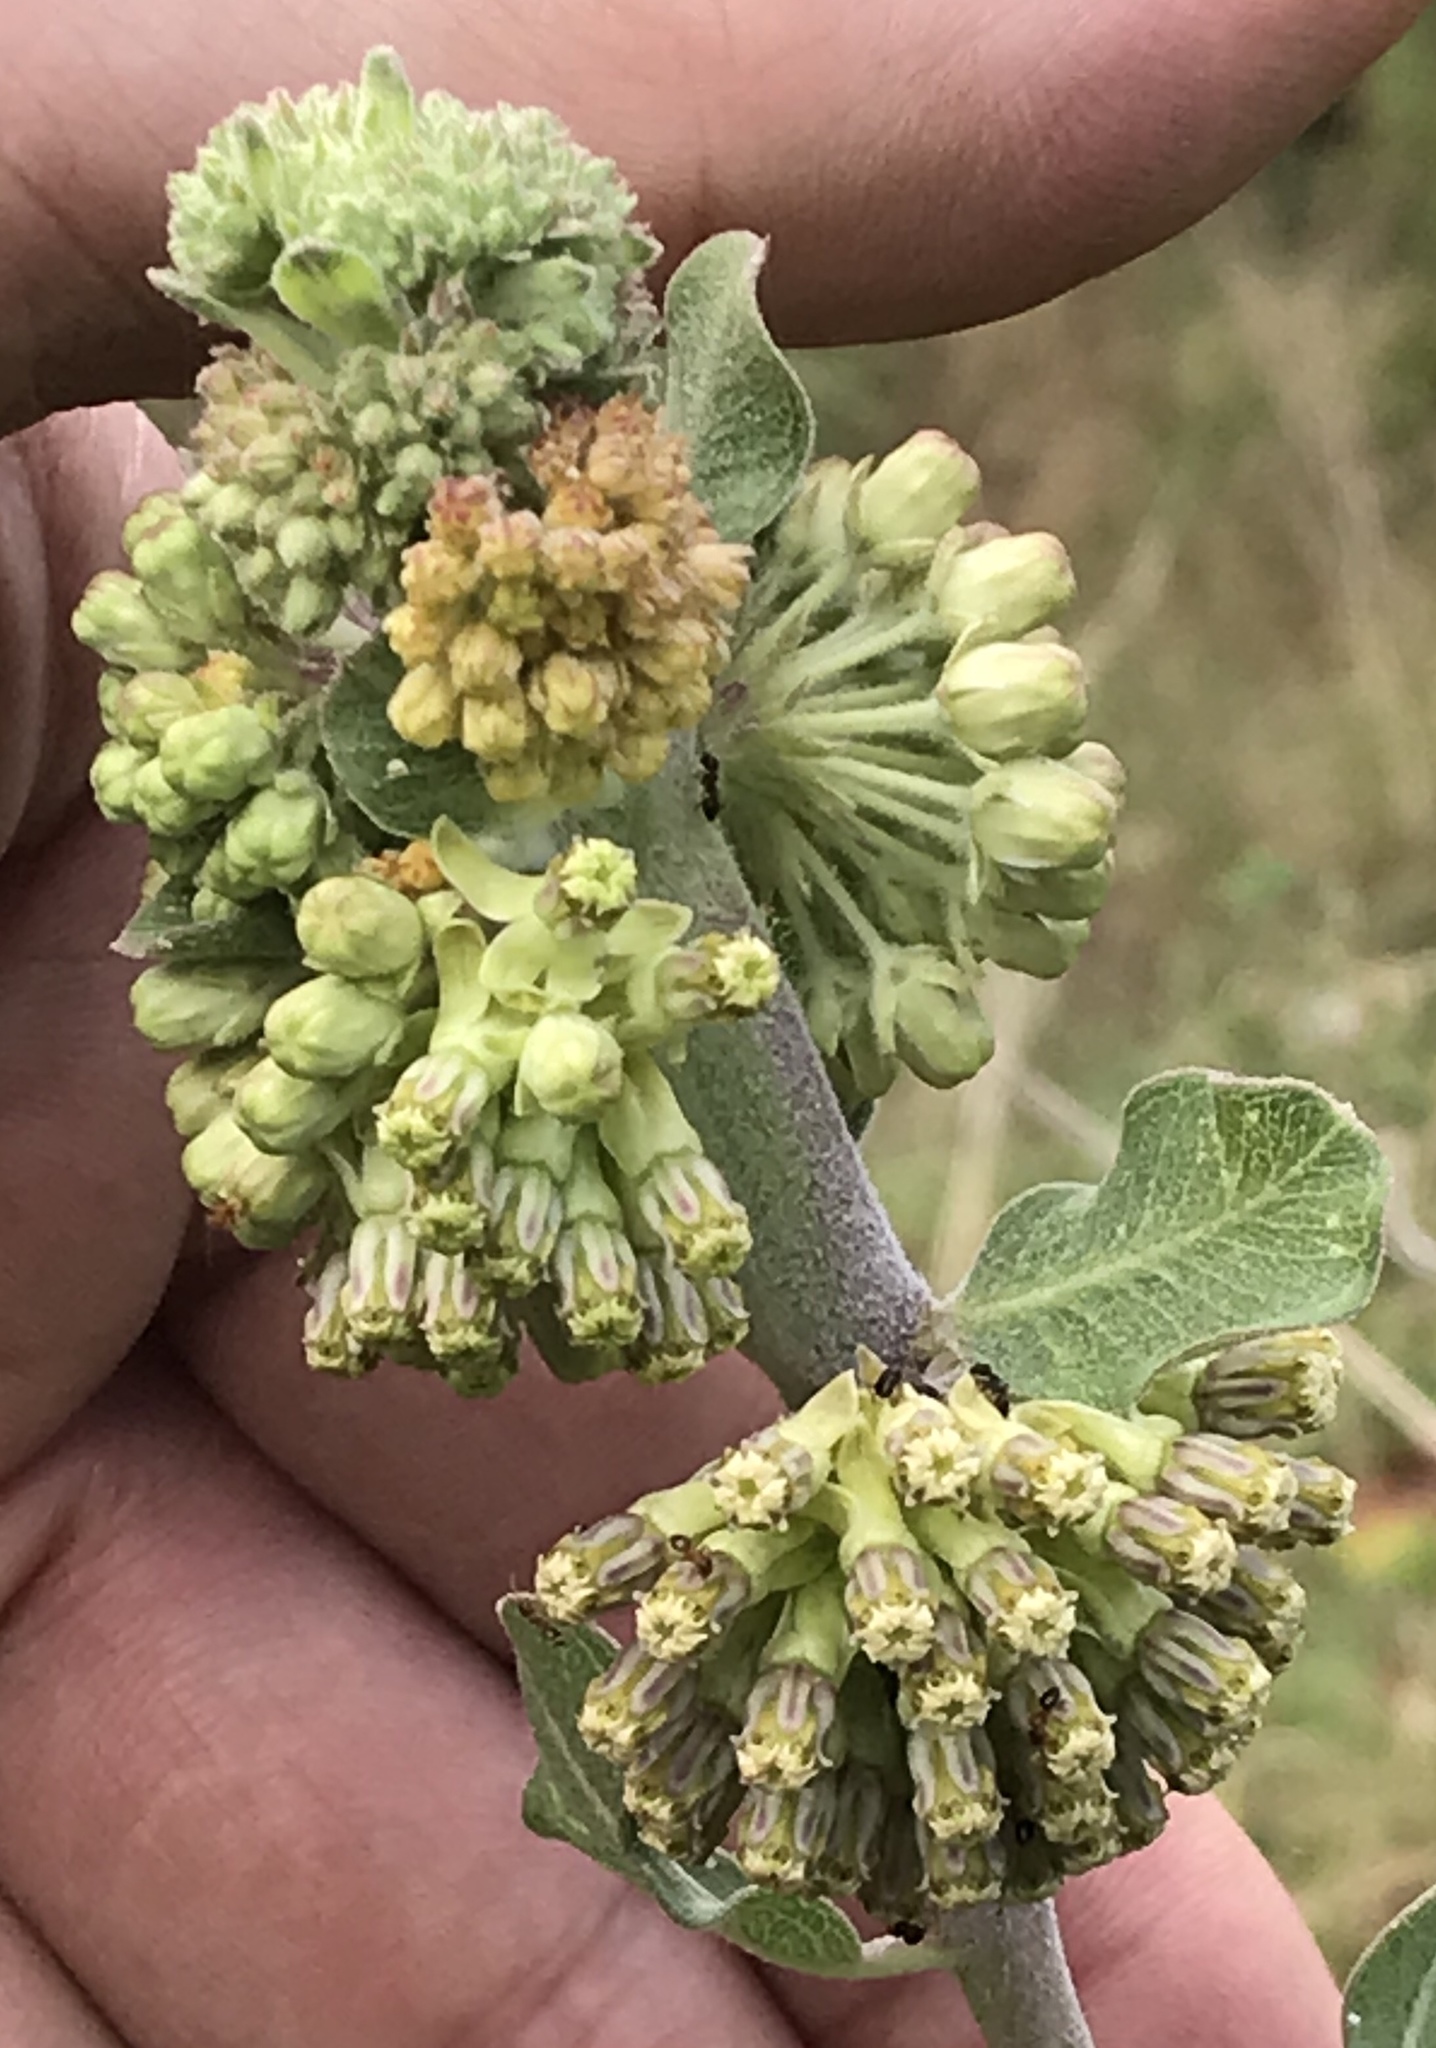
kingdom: Plantae
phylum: Tracheophyta
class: Magnoliopsida
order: Gentianales
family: Apocynaceae
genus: Asclepias
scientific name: Asclepias viridiflora
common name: Green comet milkweed
